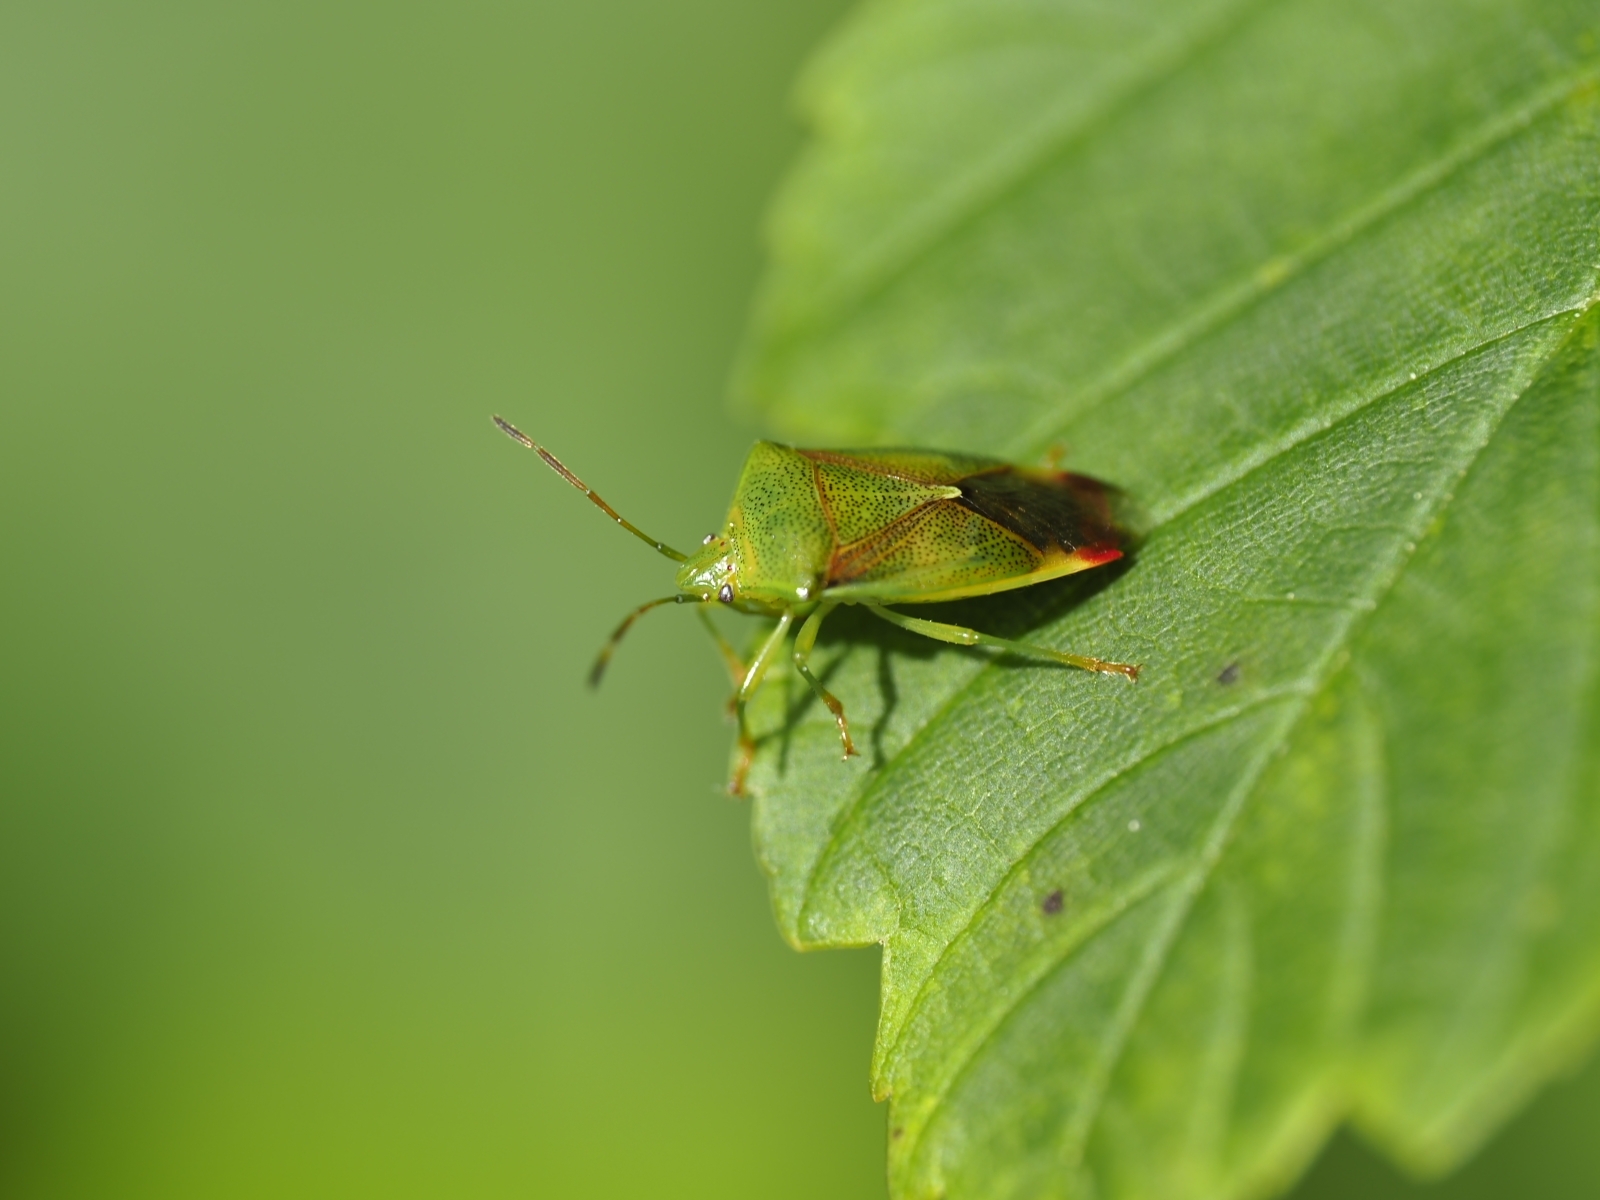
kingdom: Animalia
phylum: Arthropoda
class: Insecta
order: Hemiptera
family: Acanthosomatidae
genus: Elasmostethus
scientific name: Elasmostethus minor
